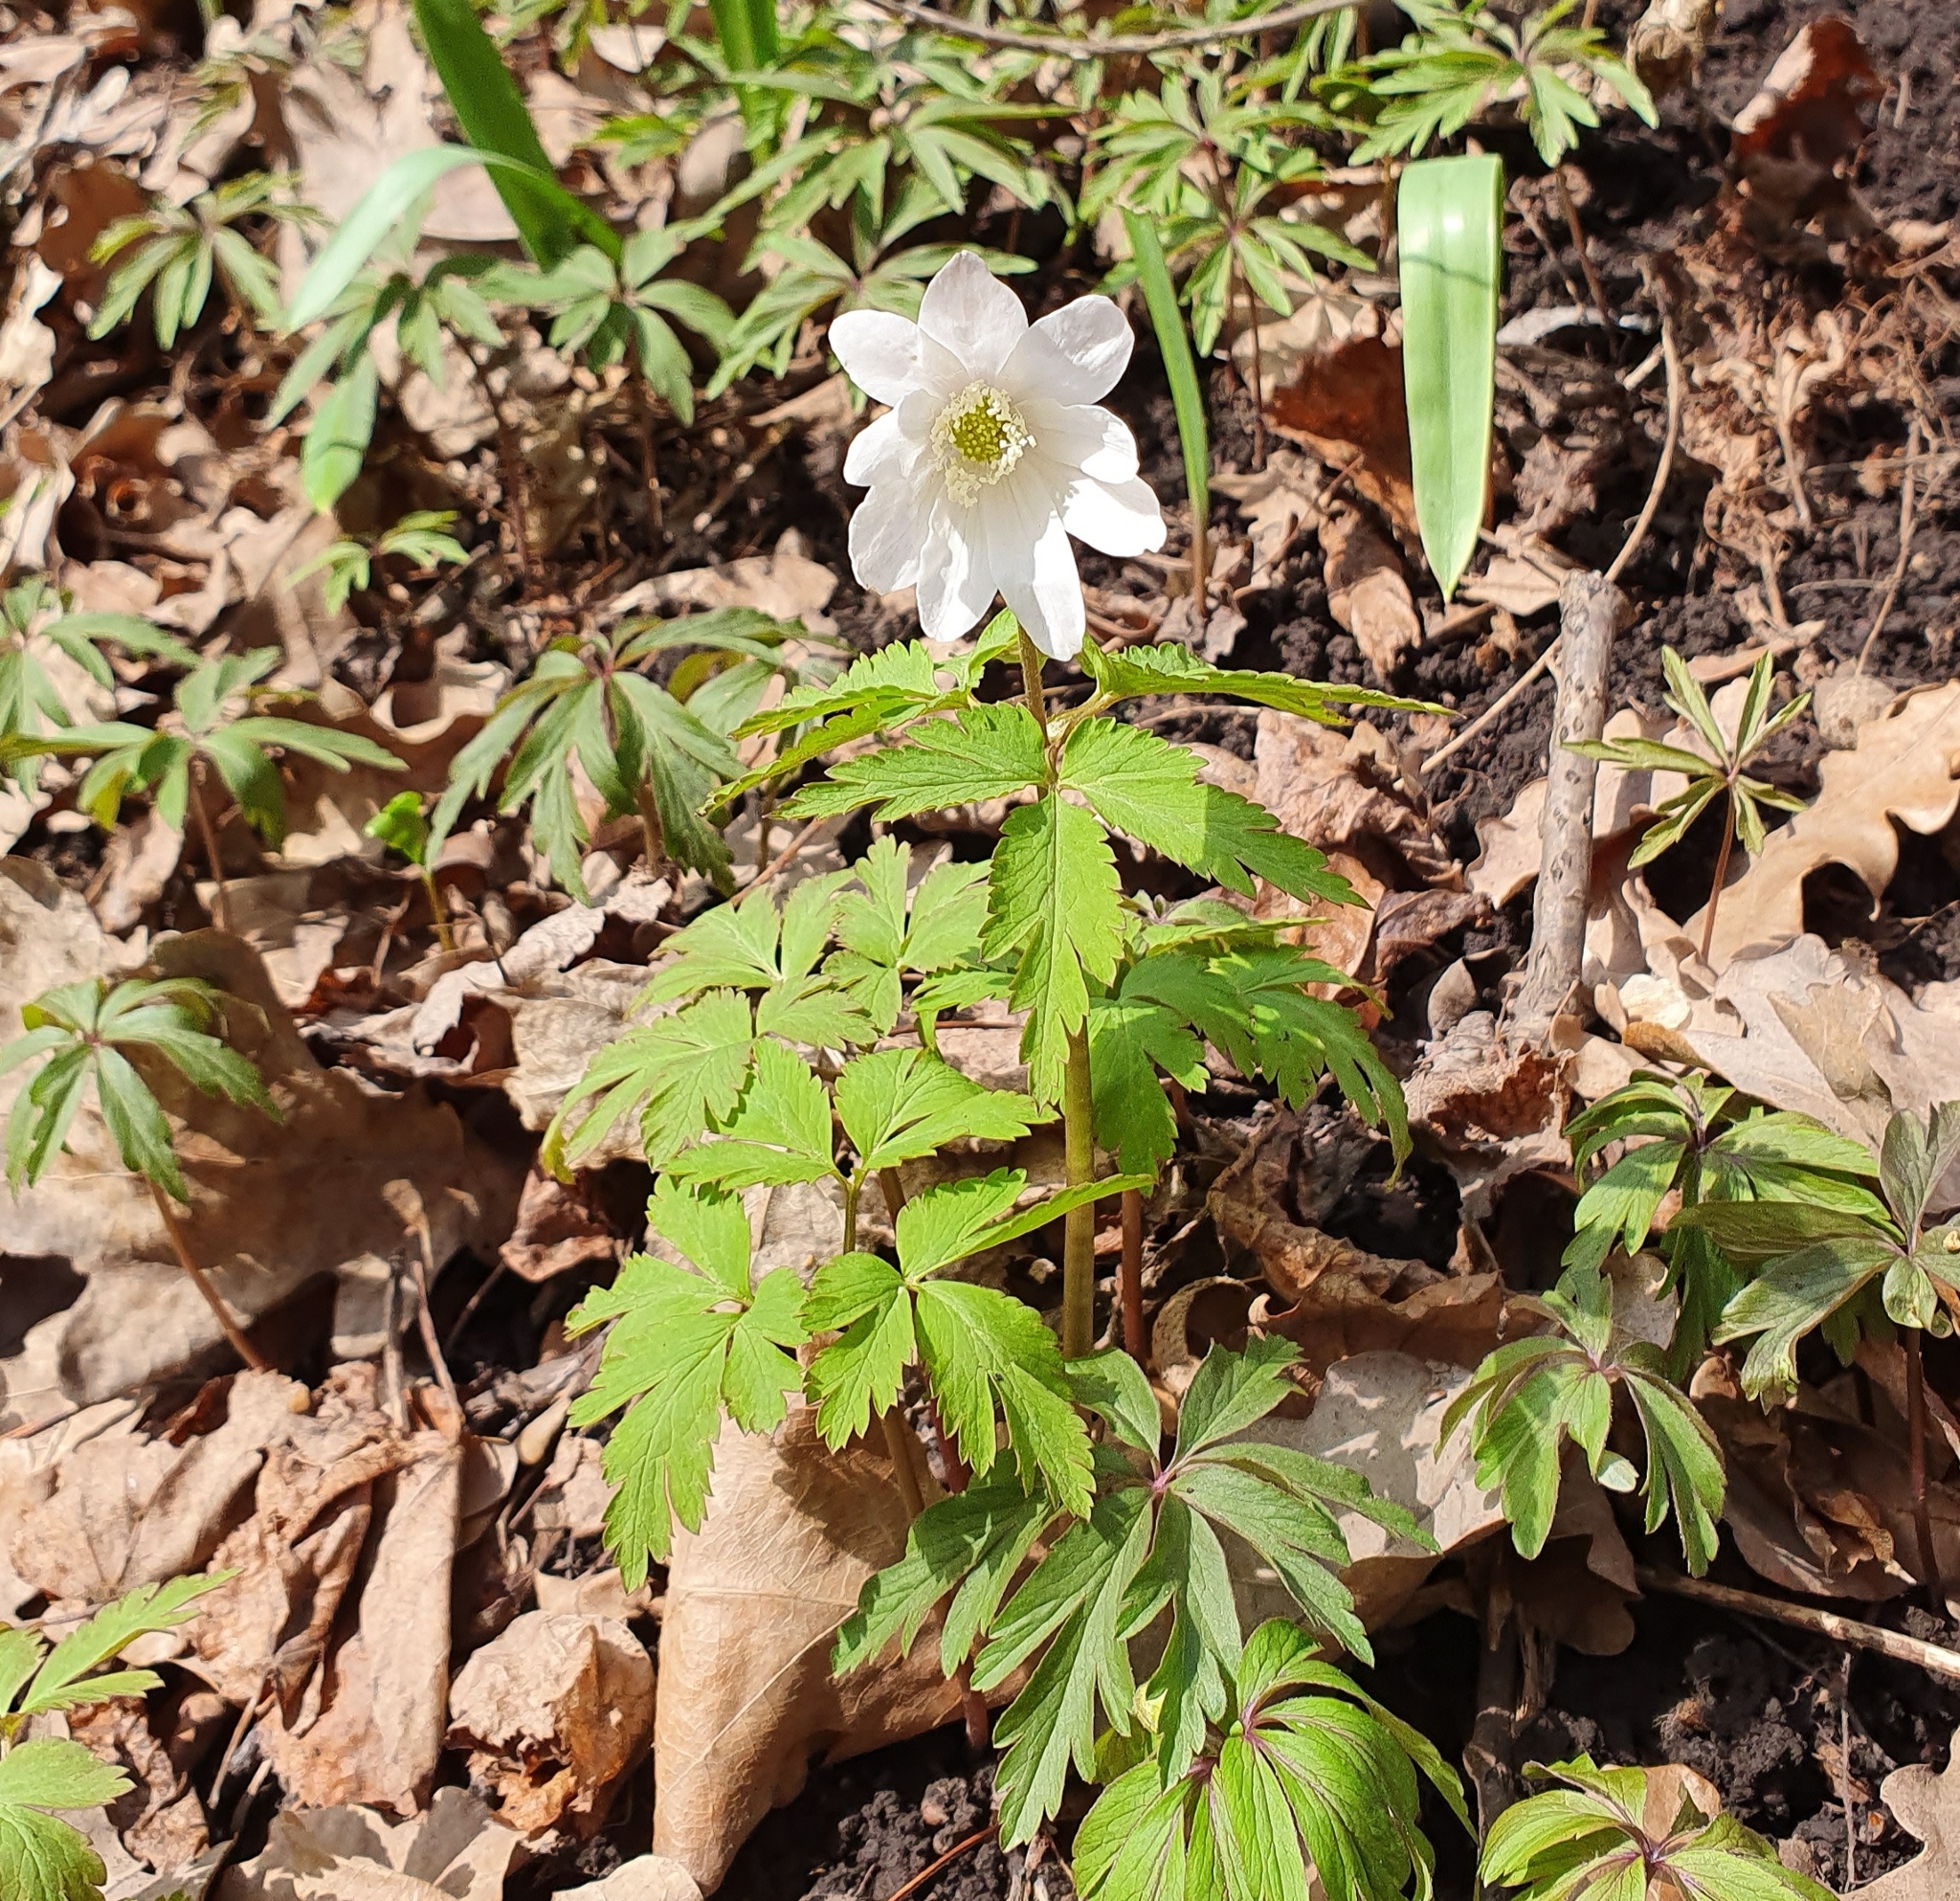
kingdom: Plantae
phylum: Tracheophyta
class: Magnoliopsida
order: Ranunculales
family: Ranunculaceae
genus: Anemone
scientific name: Anemone altaica
